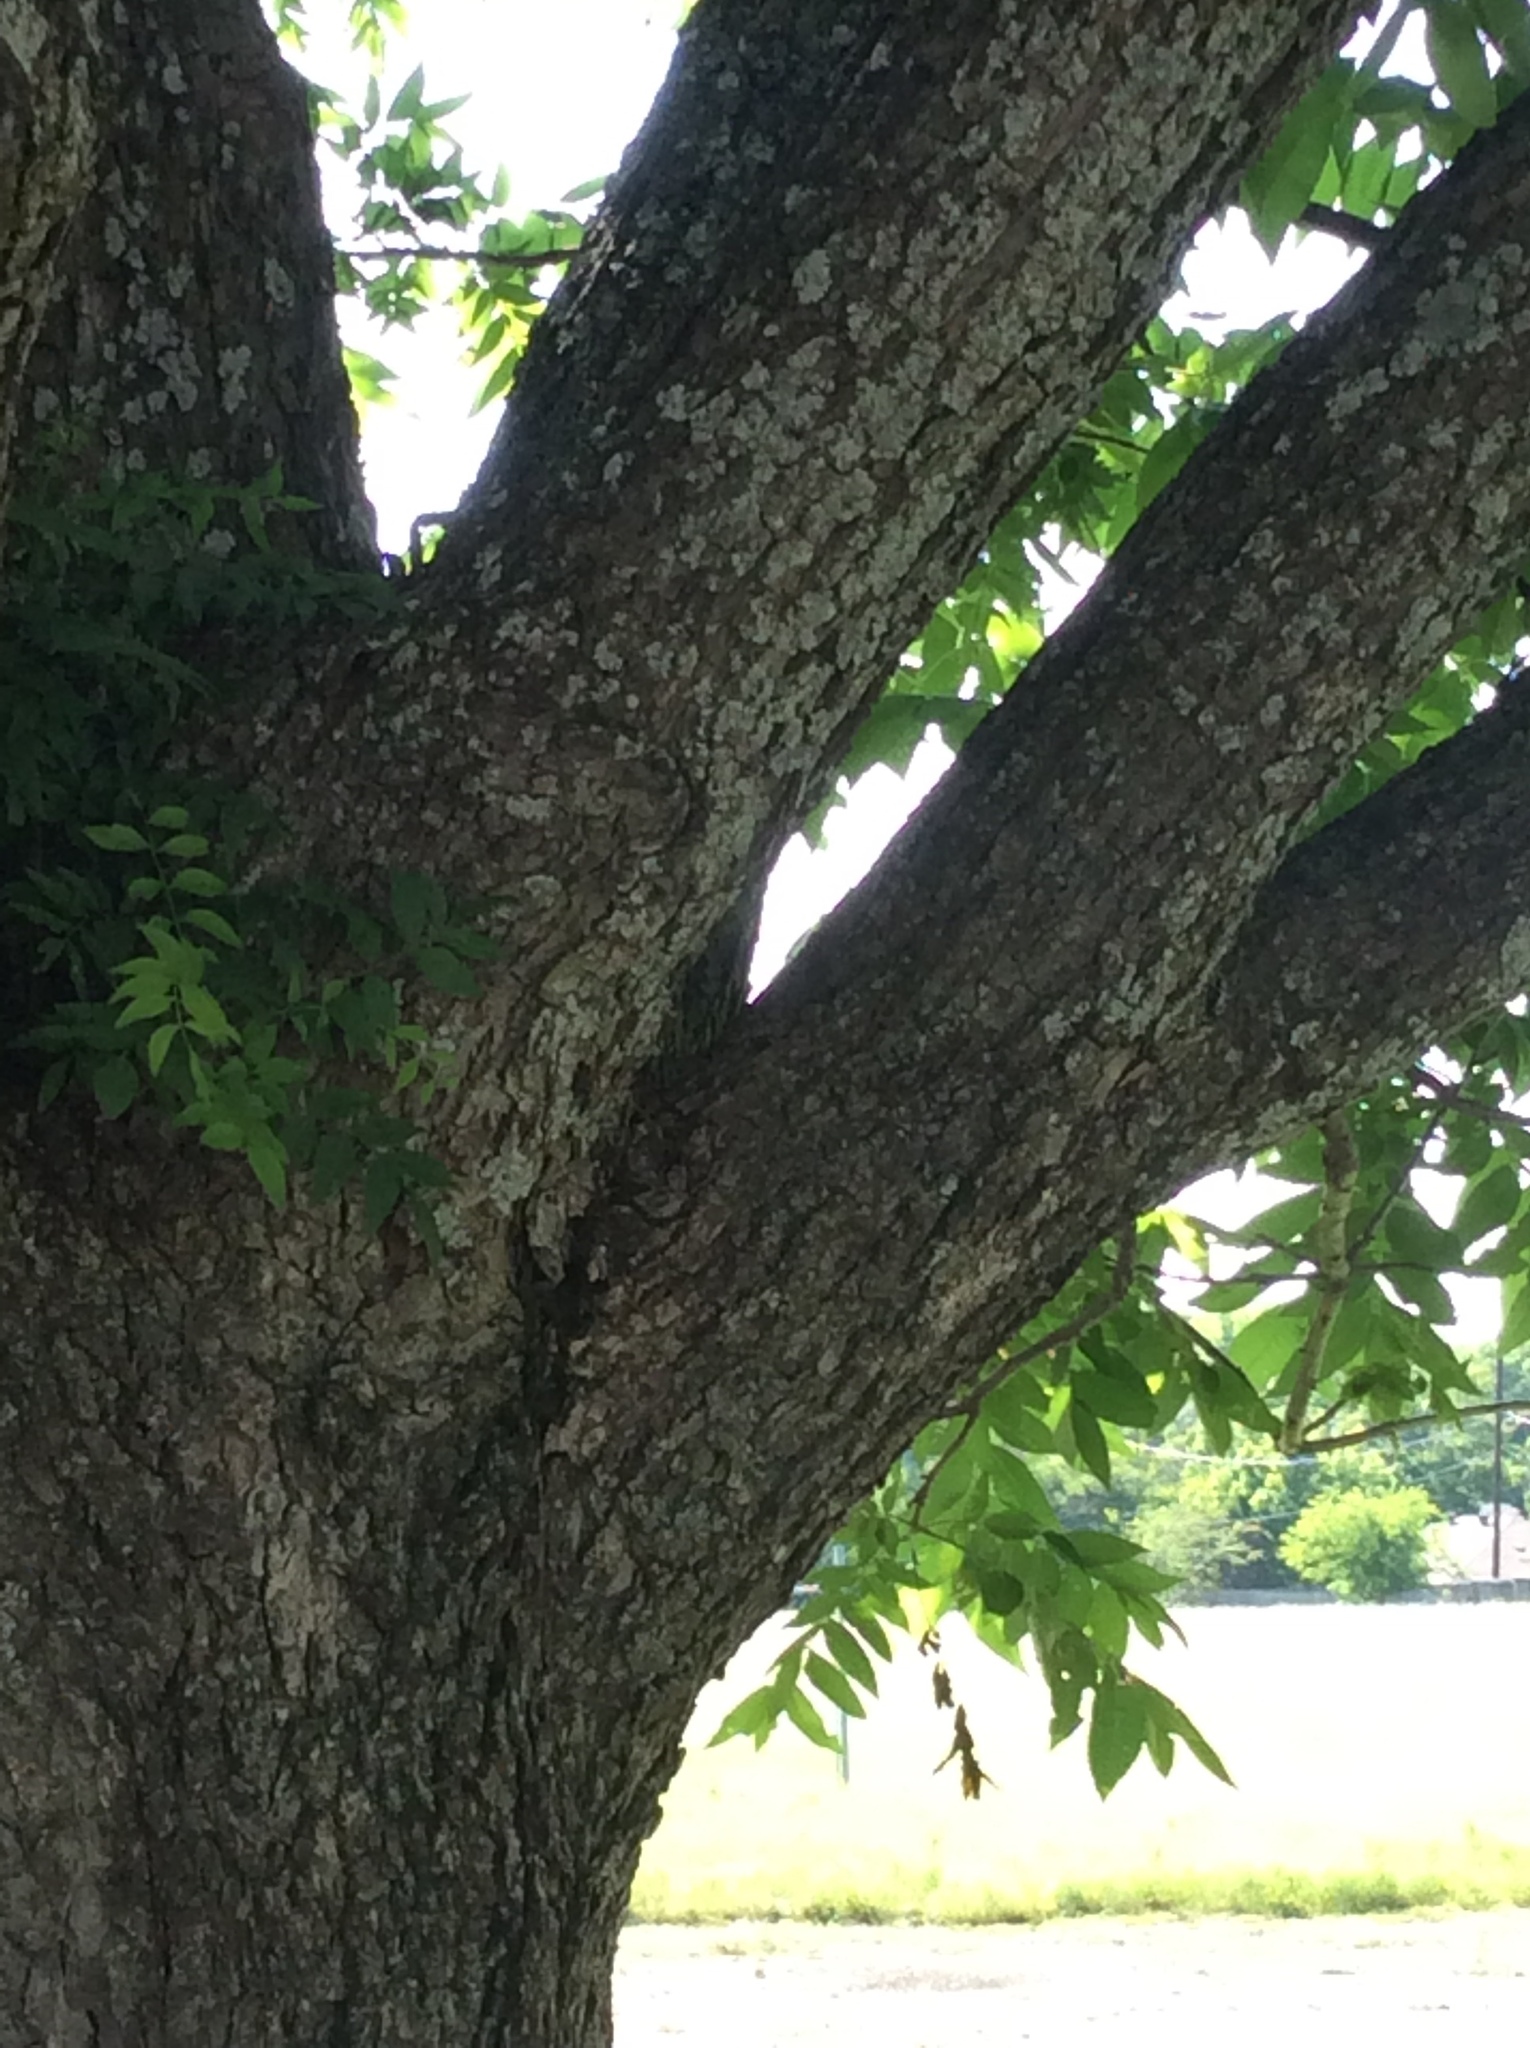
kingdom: Plantae
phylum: Tracheophyta
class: Magnoliopsida
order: Fagales
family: Juglandaceae
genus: Carya
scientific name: Carya illinoinensis
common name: Pecan
